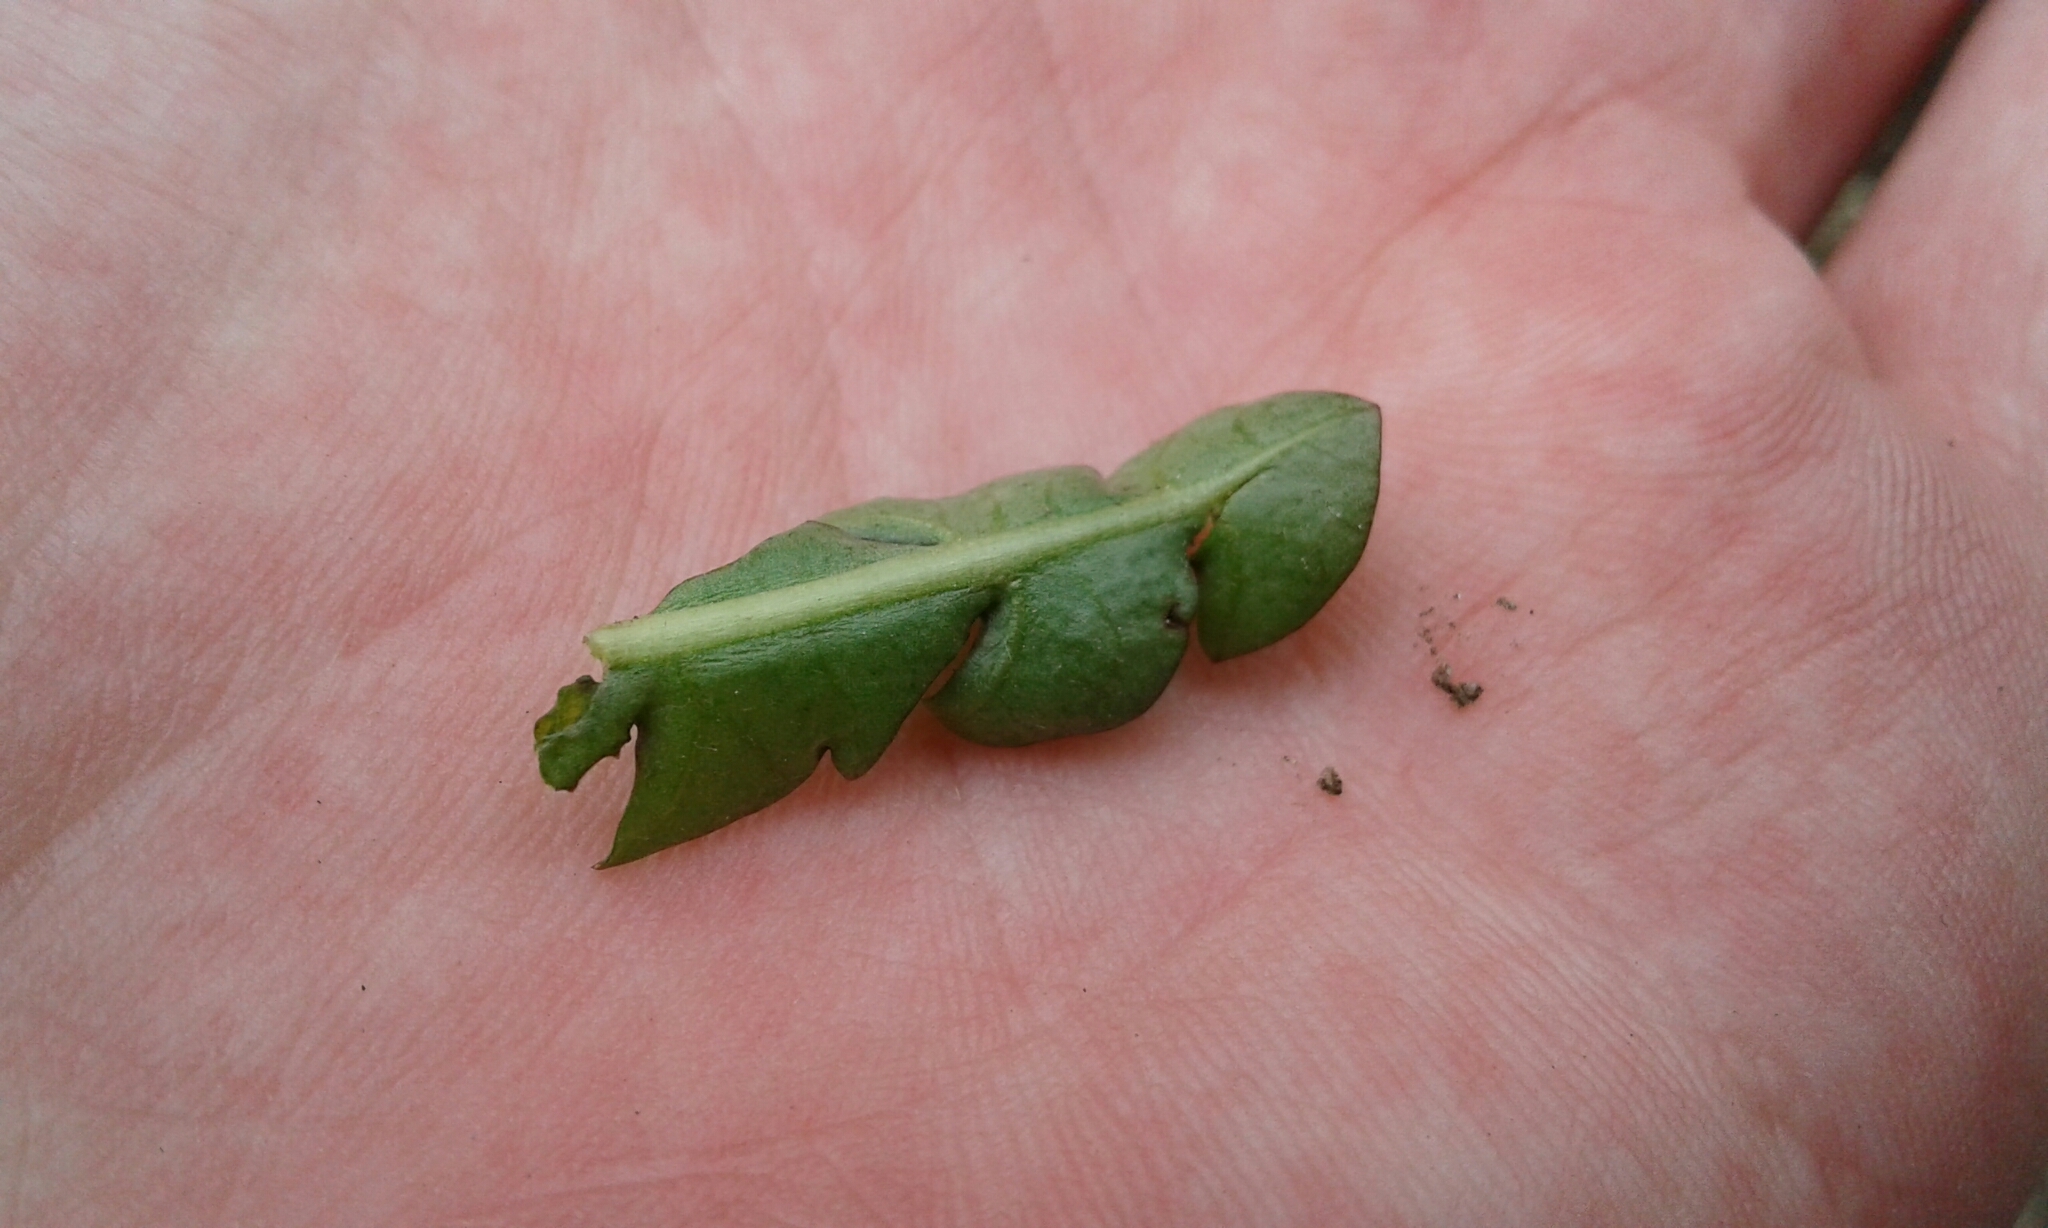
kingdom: Plantae
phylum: Tracheophyta
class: Magnoliopsida
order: Asterales
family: Asteraceae
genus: Taraxacum
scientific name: Taraxacum officinale
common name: Common dandelion
